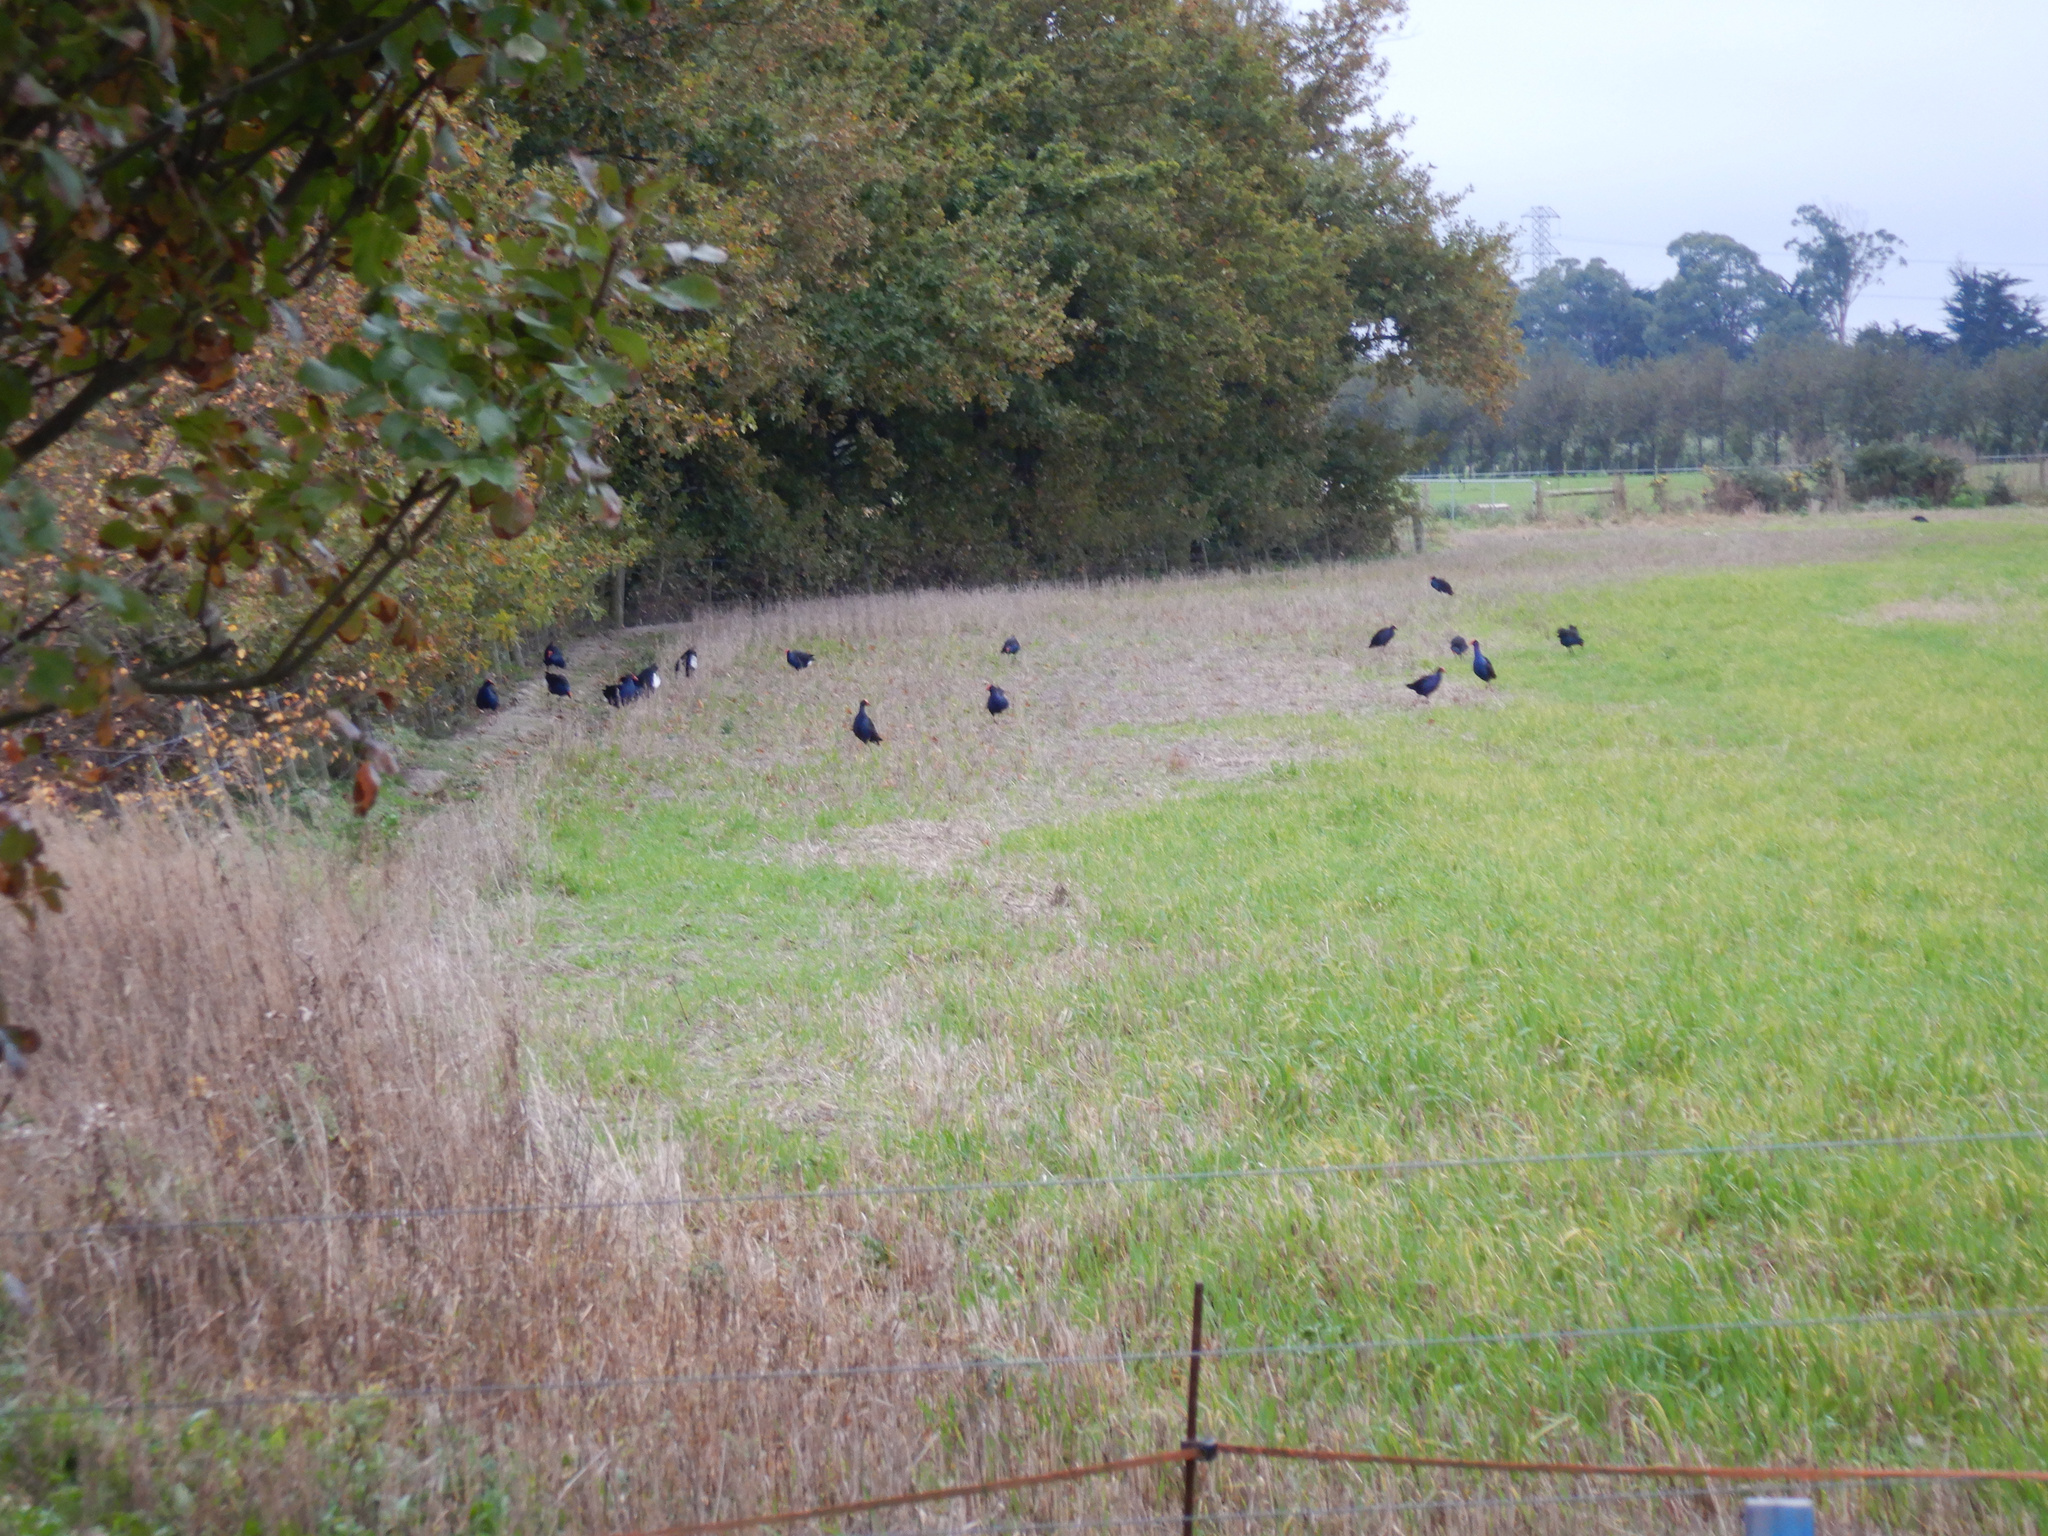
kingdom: Animalia
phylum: Chordata
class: Aves
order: Gruiformes
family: Rallidae
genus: Porphyrio
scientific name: Porphyrio melanotus
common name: Australasian swamphen
